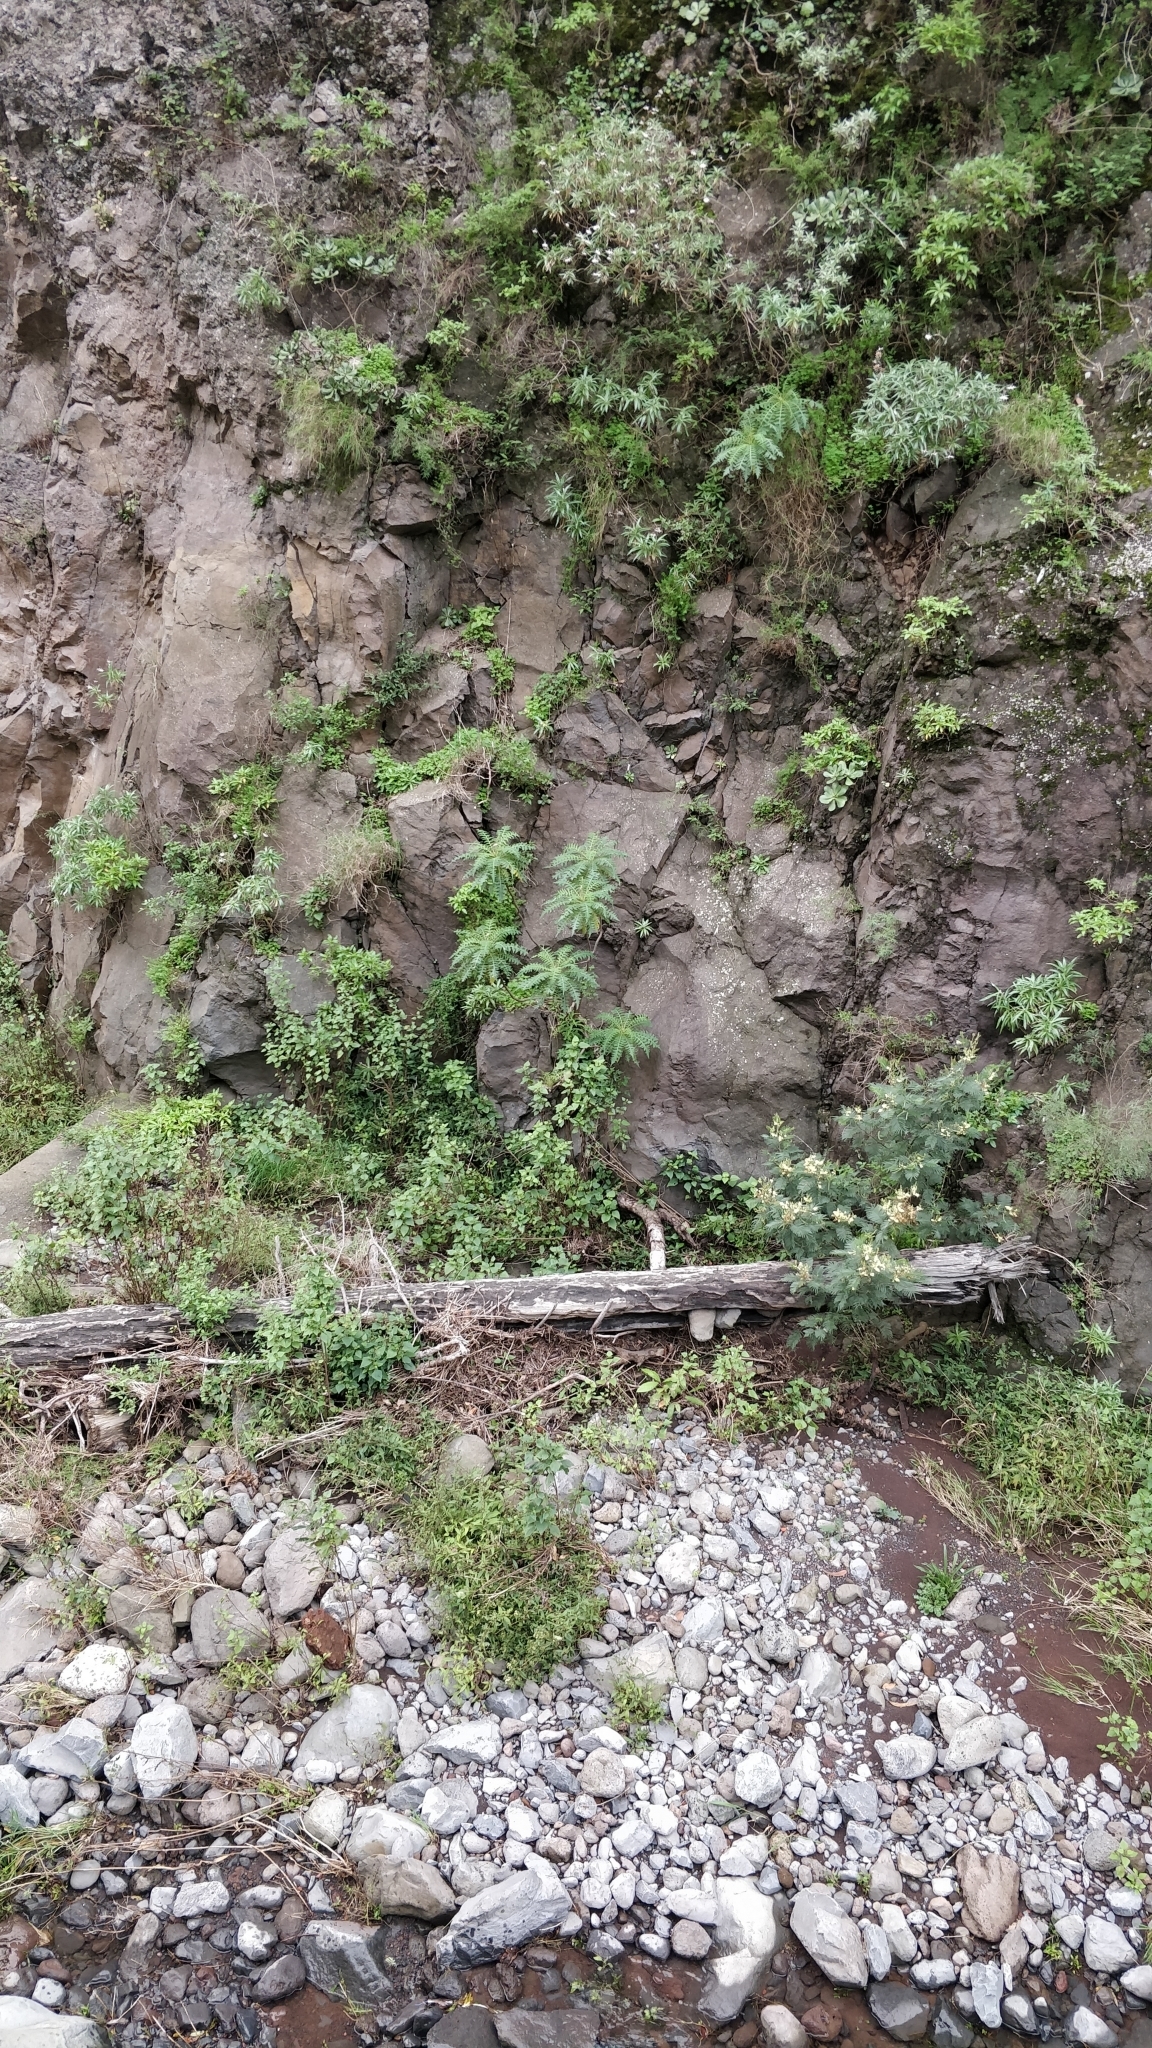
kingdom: Plantae
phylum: Tracheophyta
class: Magnoliopsida
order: Asterales
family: Asteraceae
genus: Sonchus
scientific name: Sonchus pinnatus
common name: Wing-leaved sow-thistle
